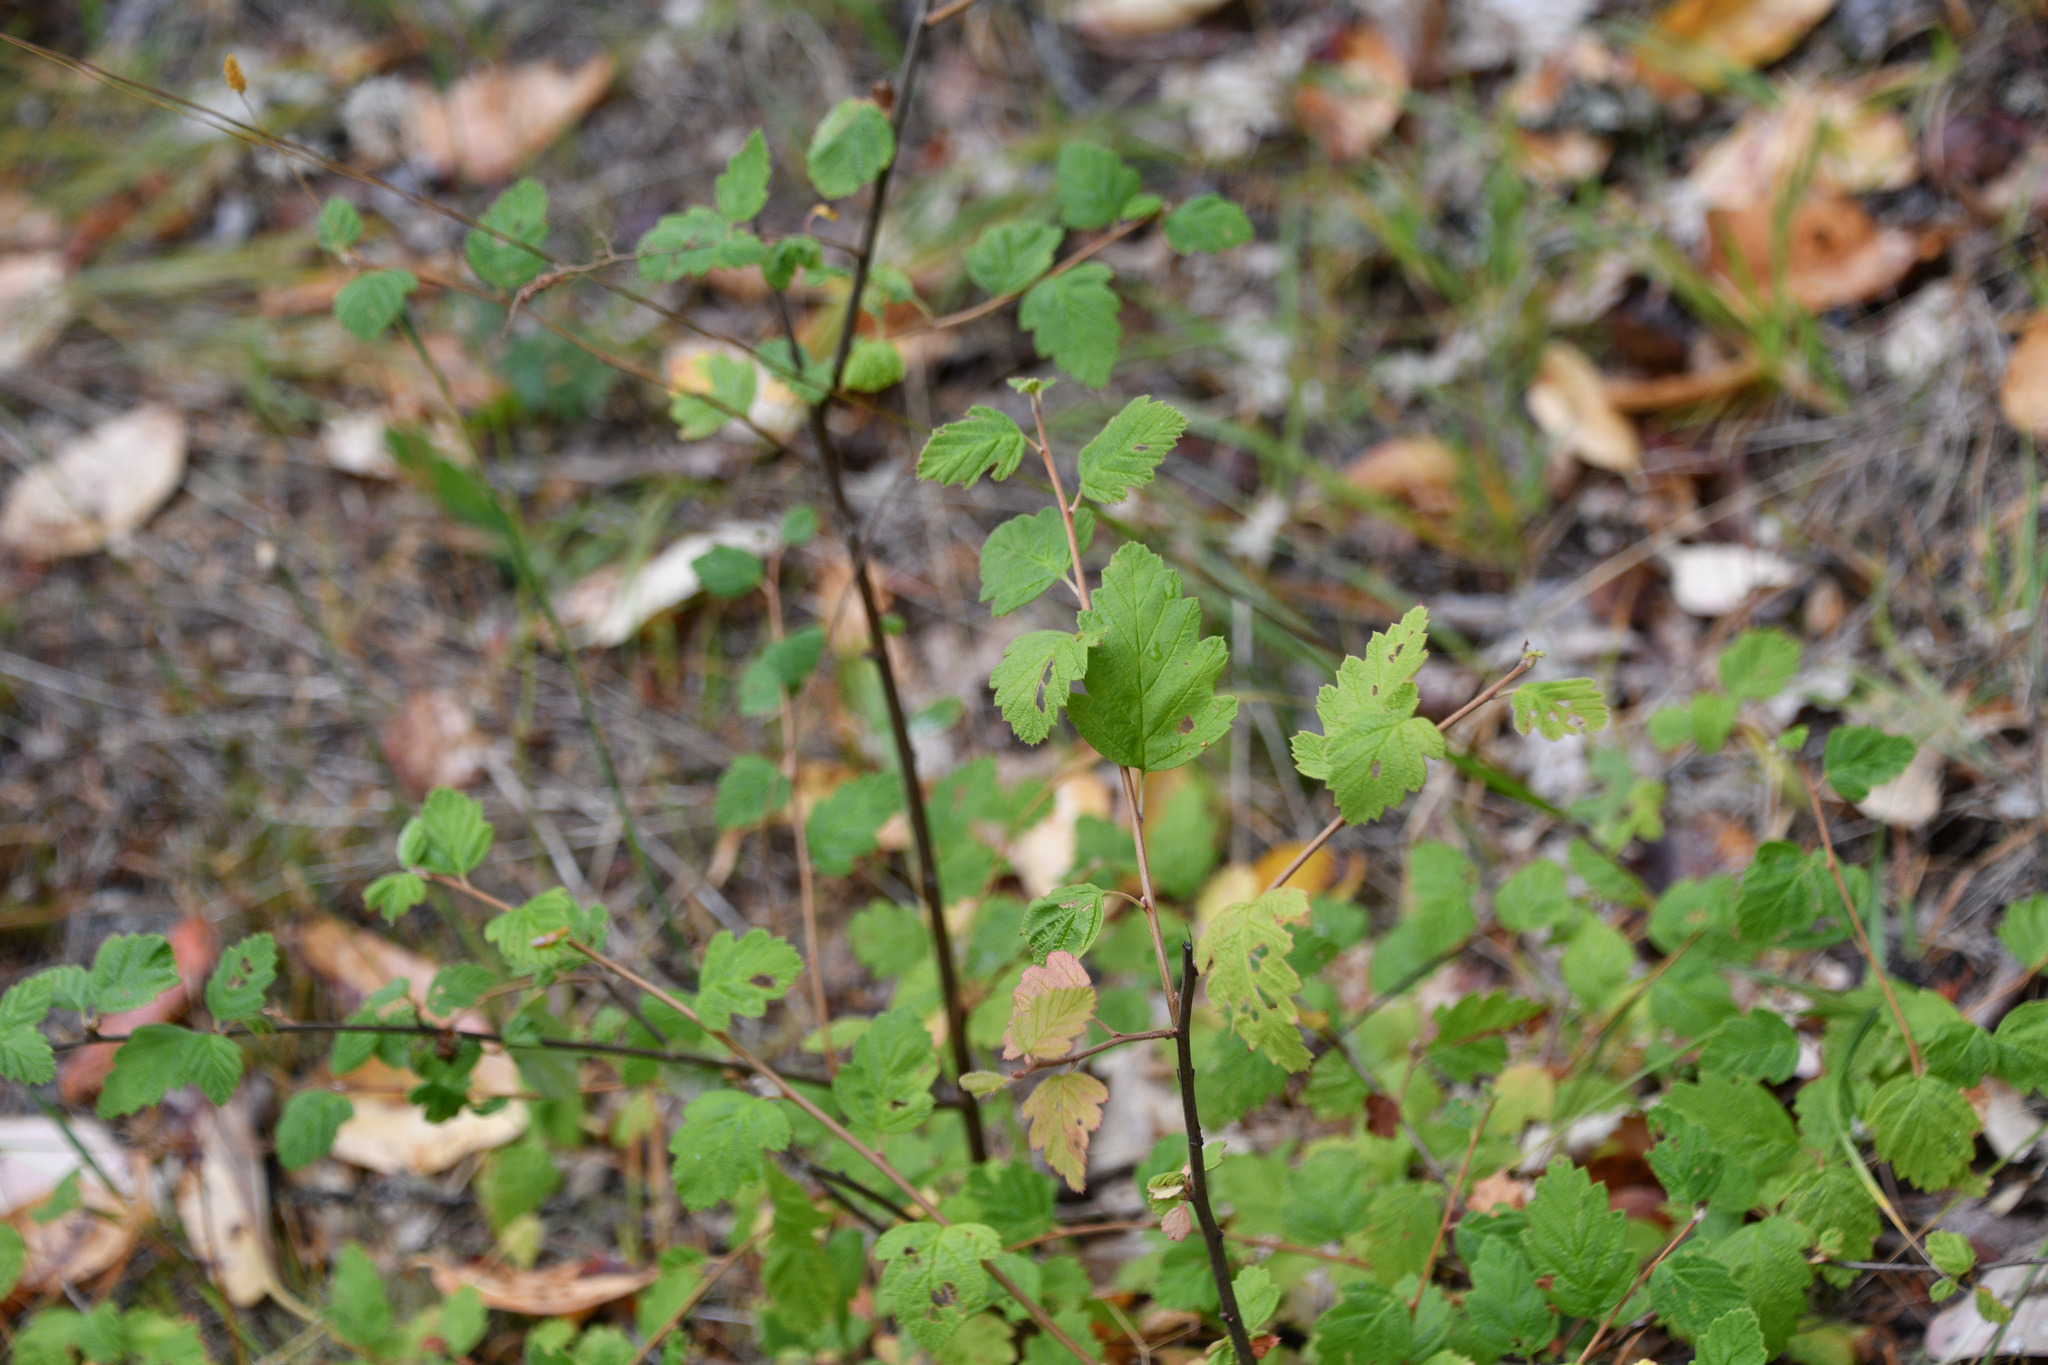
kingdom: Plantae
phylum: Tracheophyta
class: Magnoliopsida
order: Rosales
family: Rosaceae
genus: Holodiscus
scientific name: Holodiscus discolor
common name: Oceanspray
